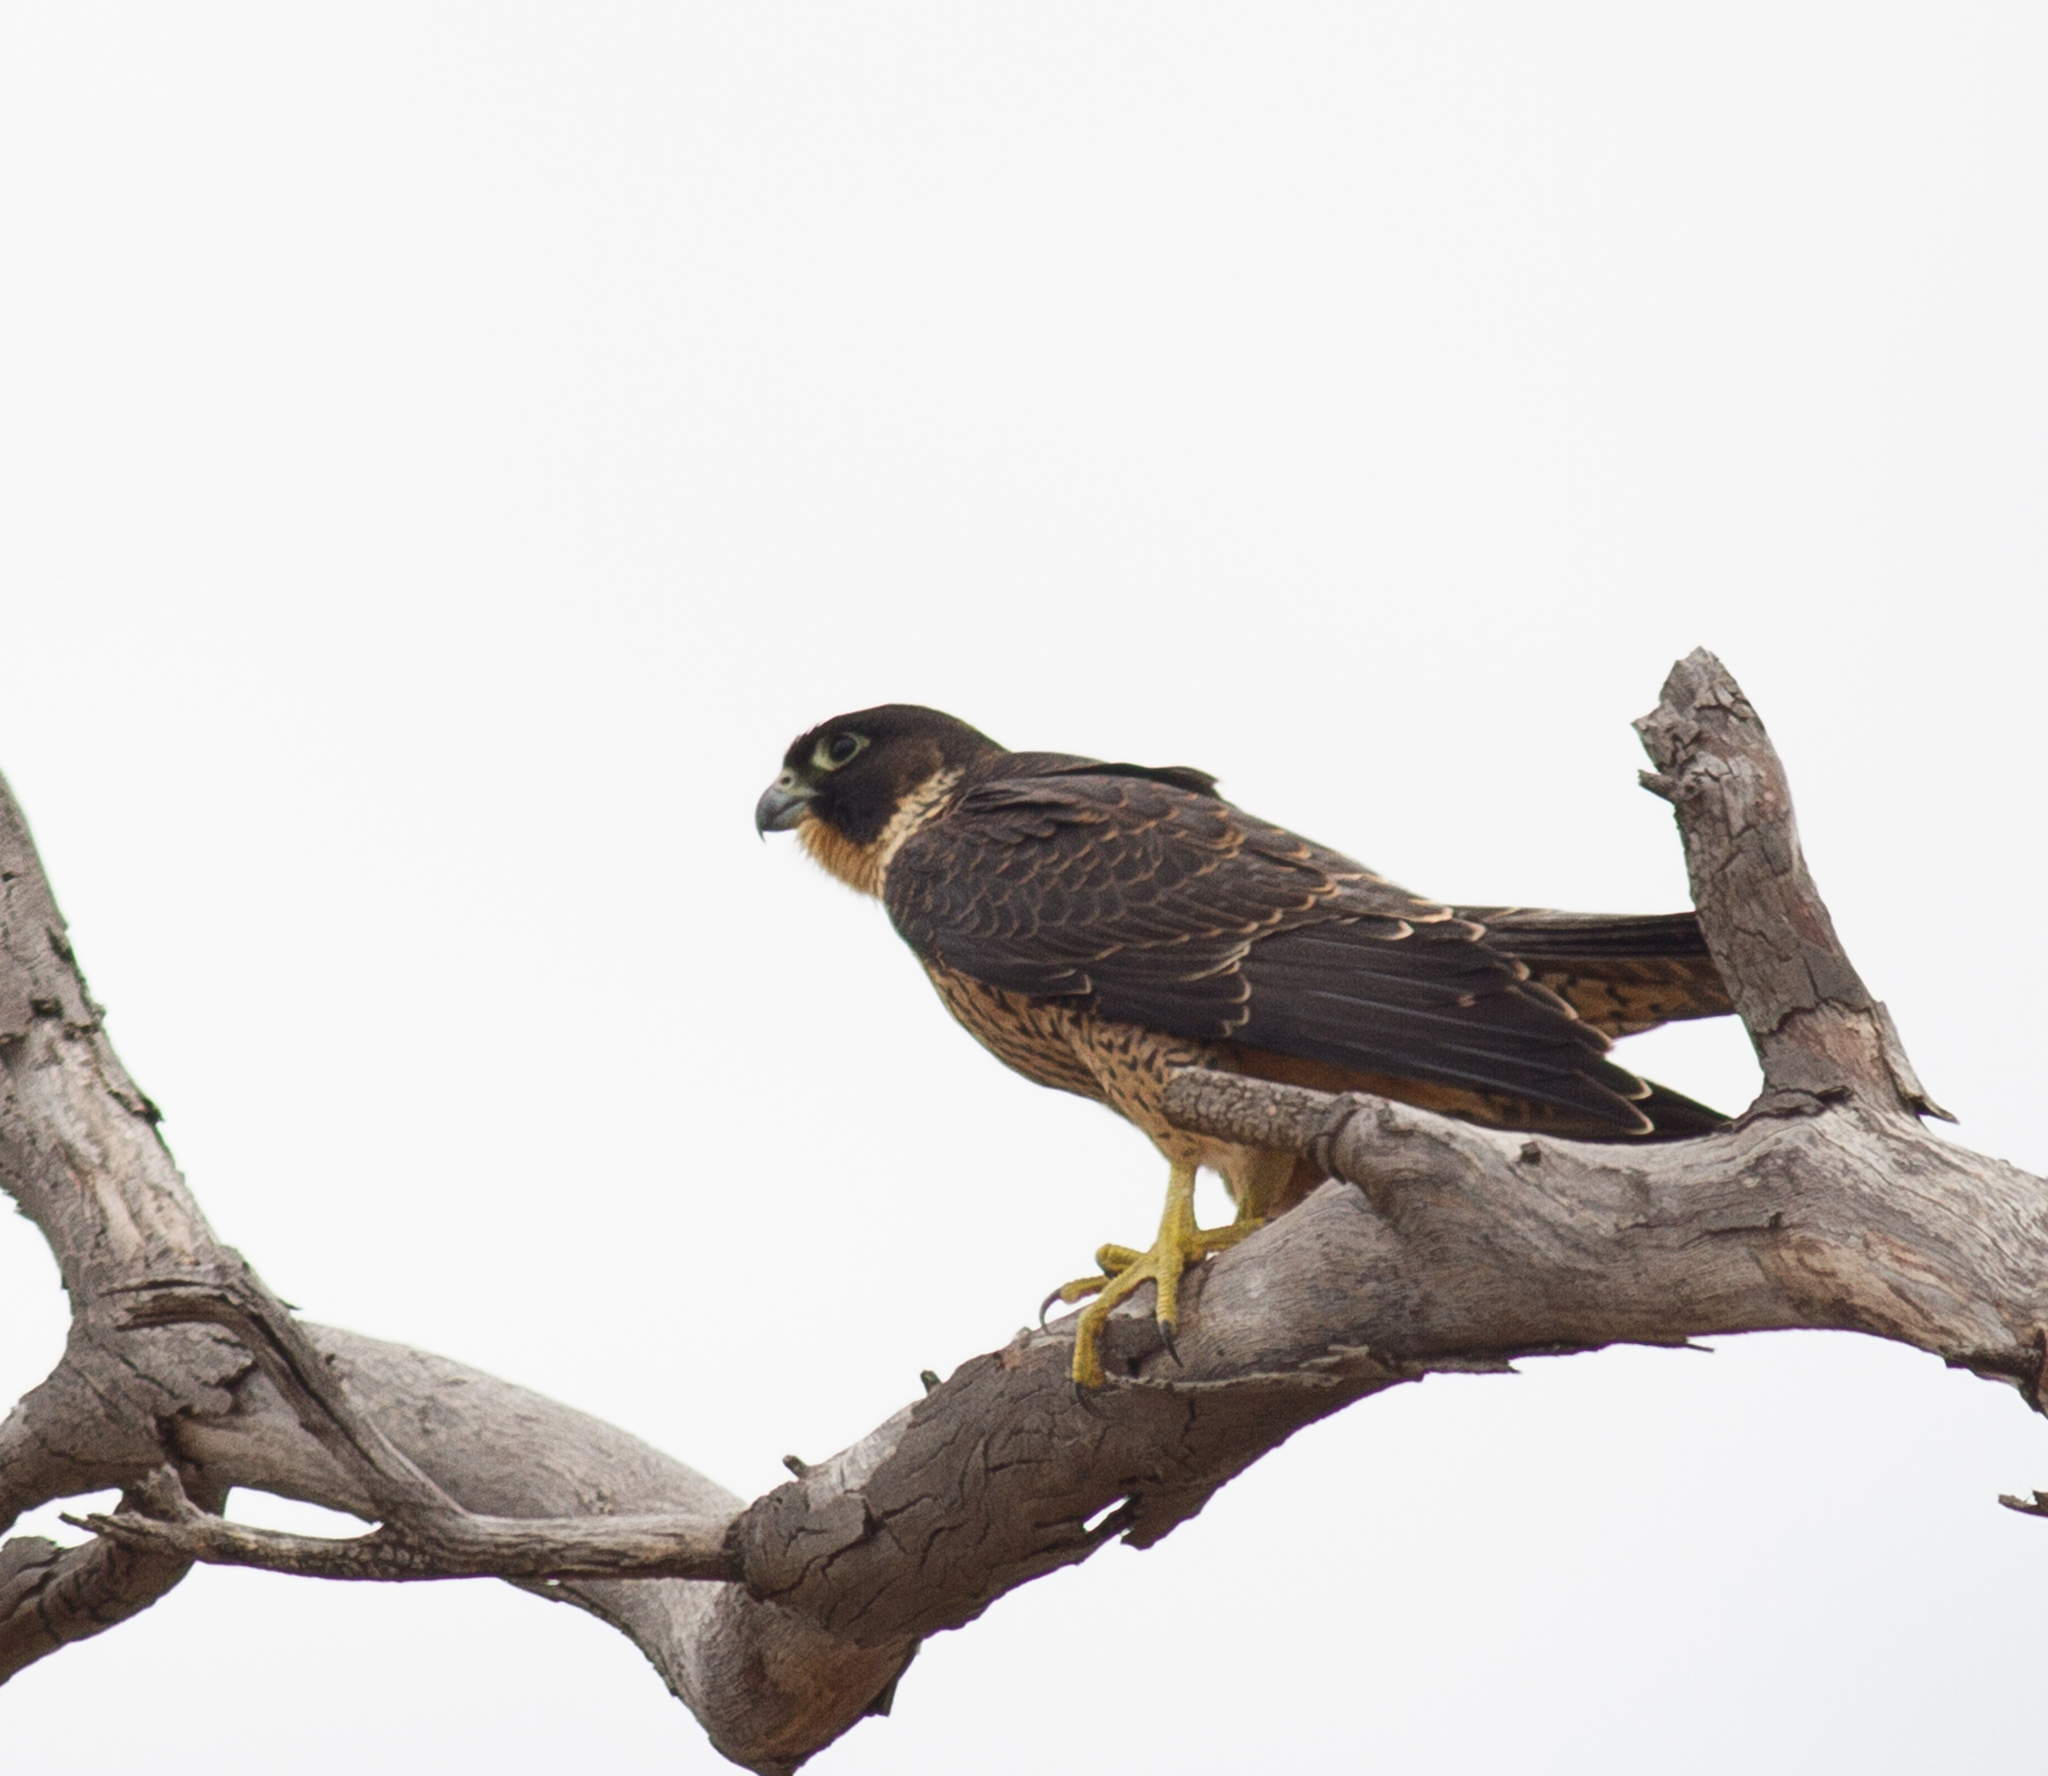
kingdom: Animalia
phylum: Chordata
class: Aves
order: Falconiformes
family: Falconidae
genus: Falco
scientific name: Falco peregrinus
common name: Peregrine falcon
